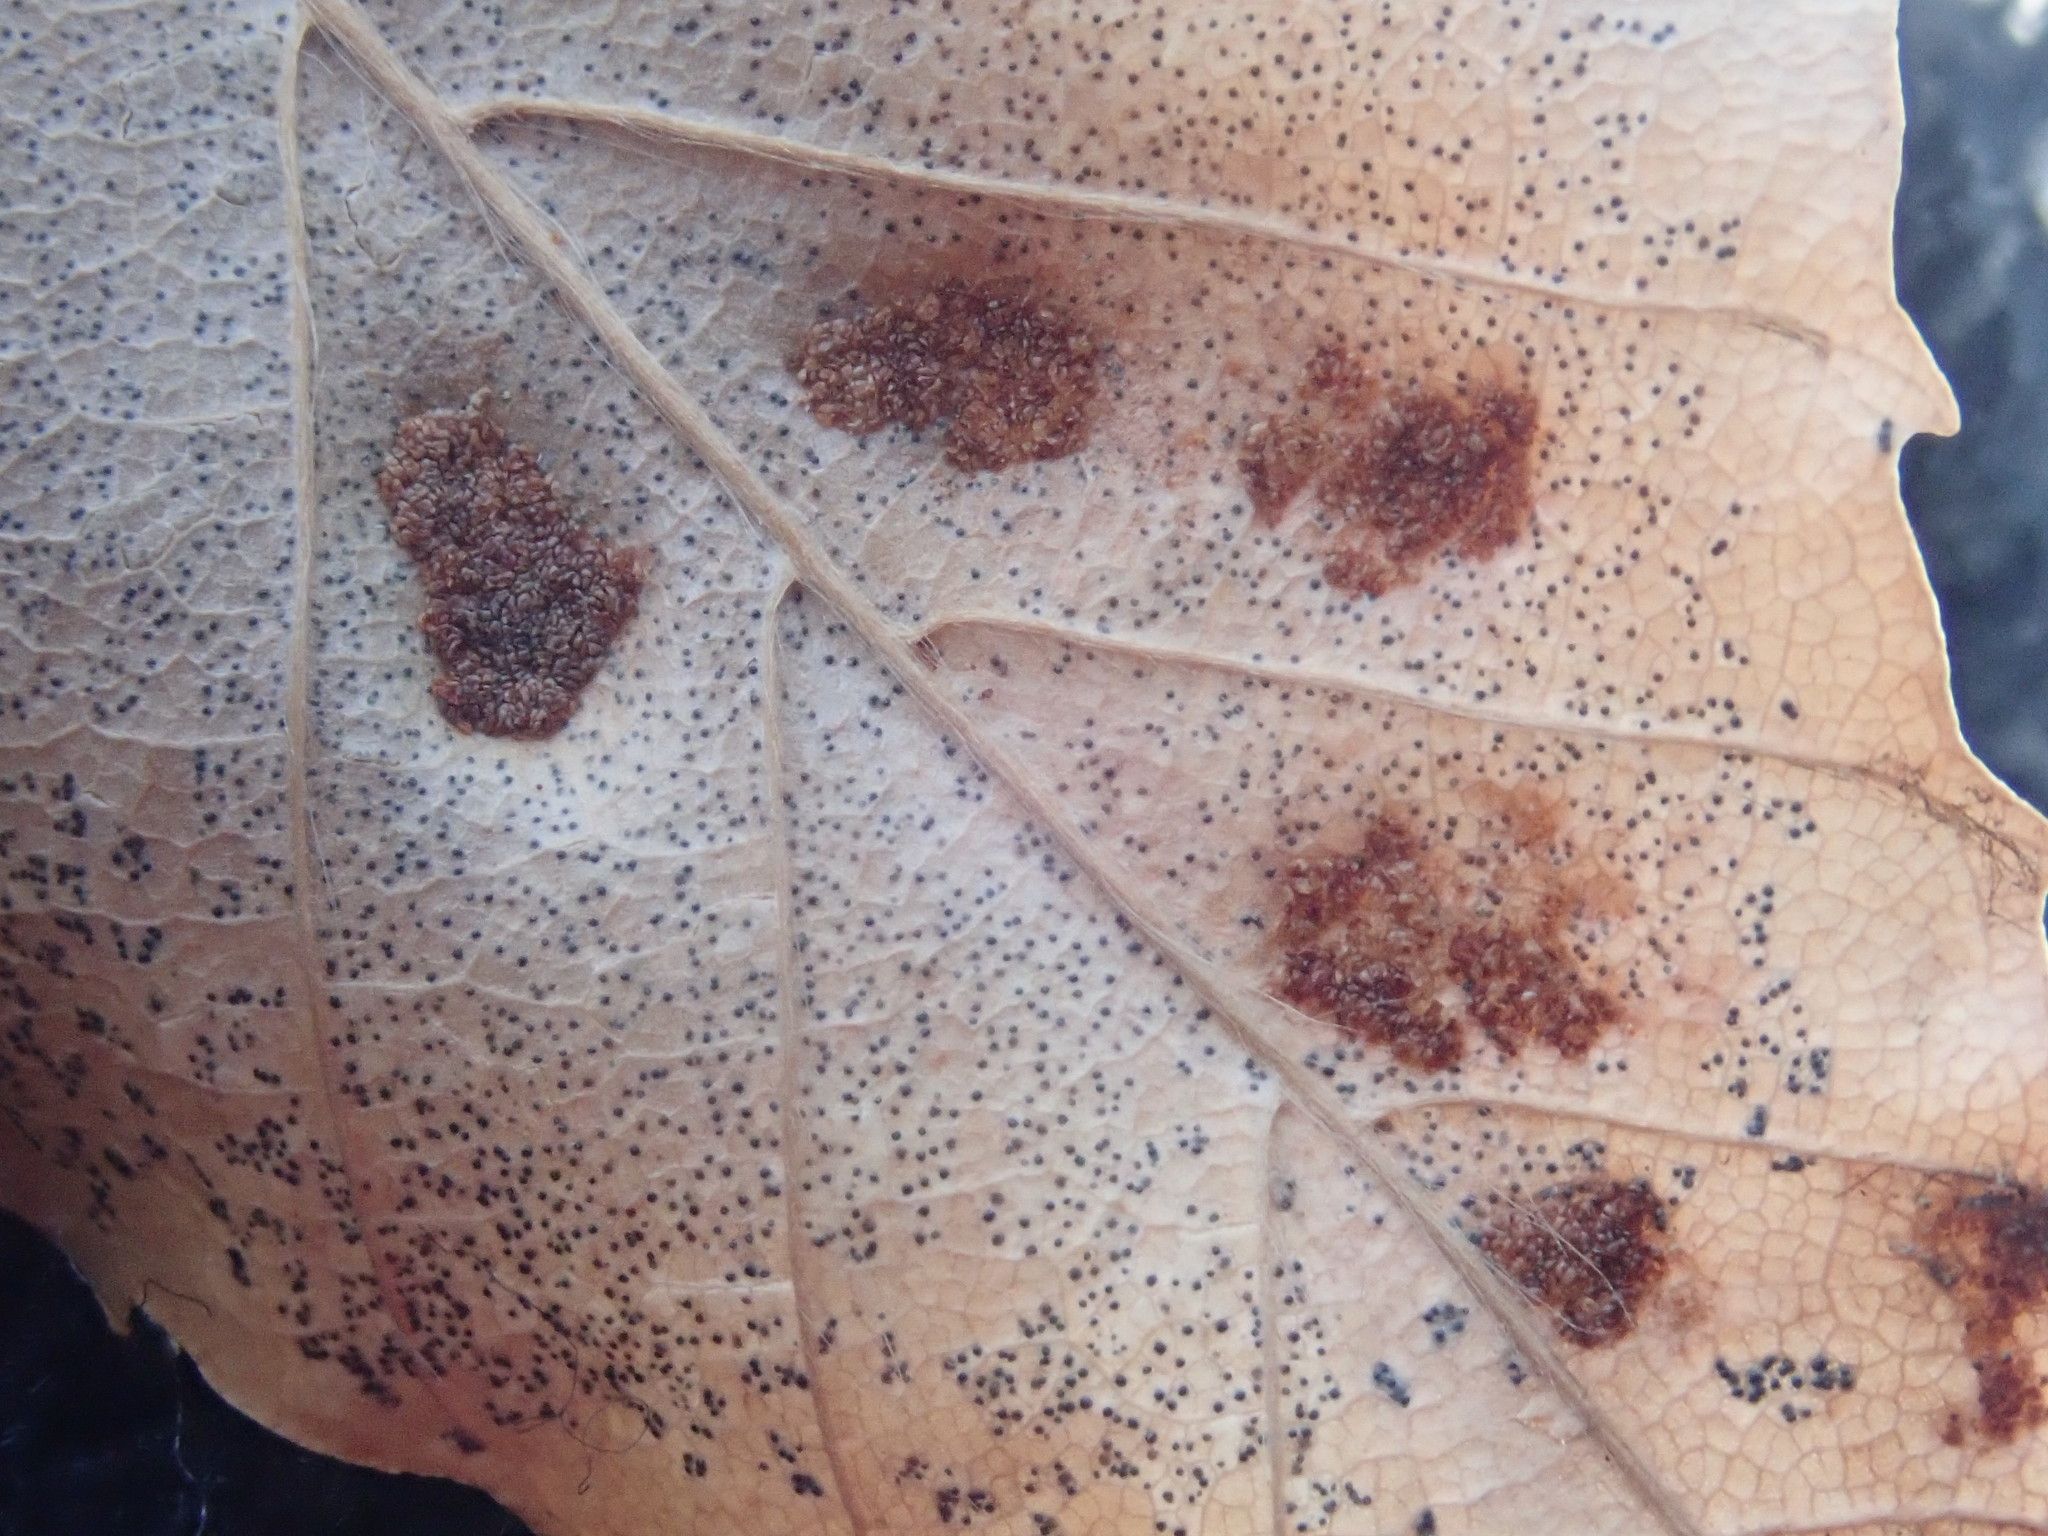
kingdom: Animalia
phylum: Arthropoda
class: Arachnida
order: Trombidiformes
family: Eriophyidae
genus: Acalitus
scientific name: Acalitus
